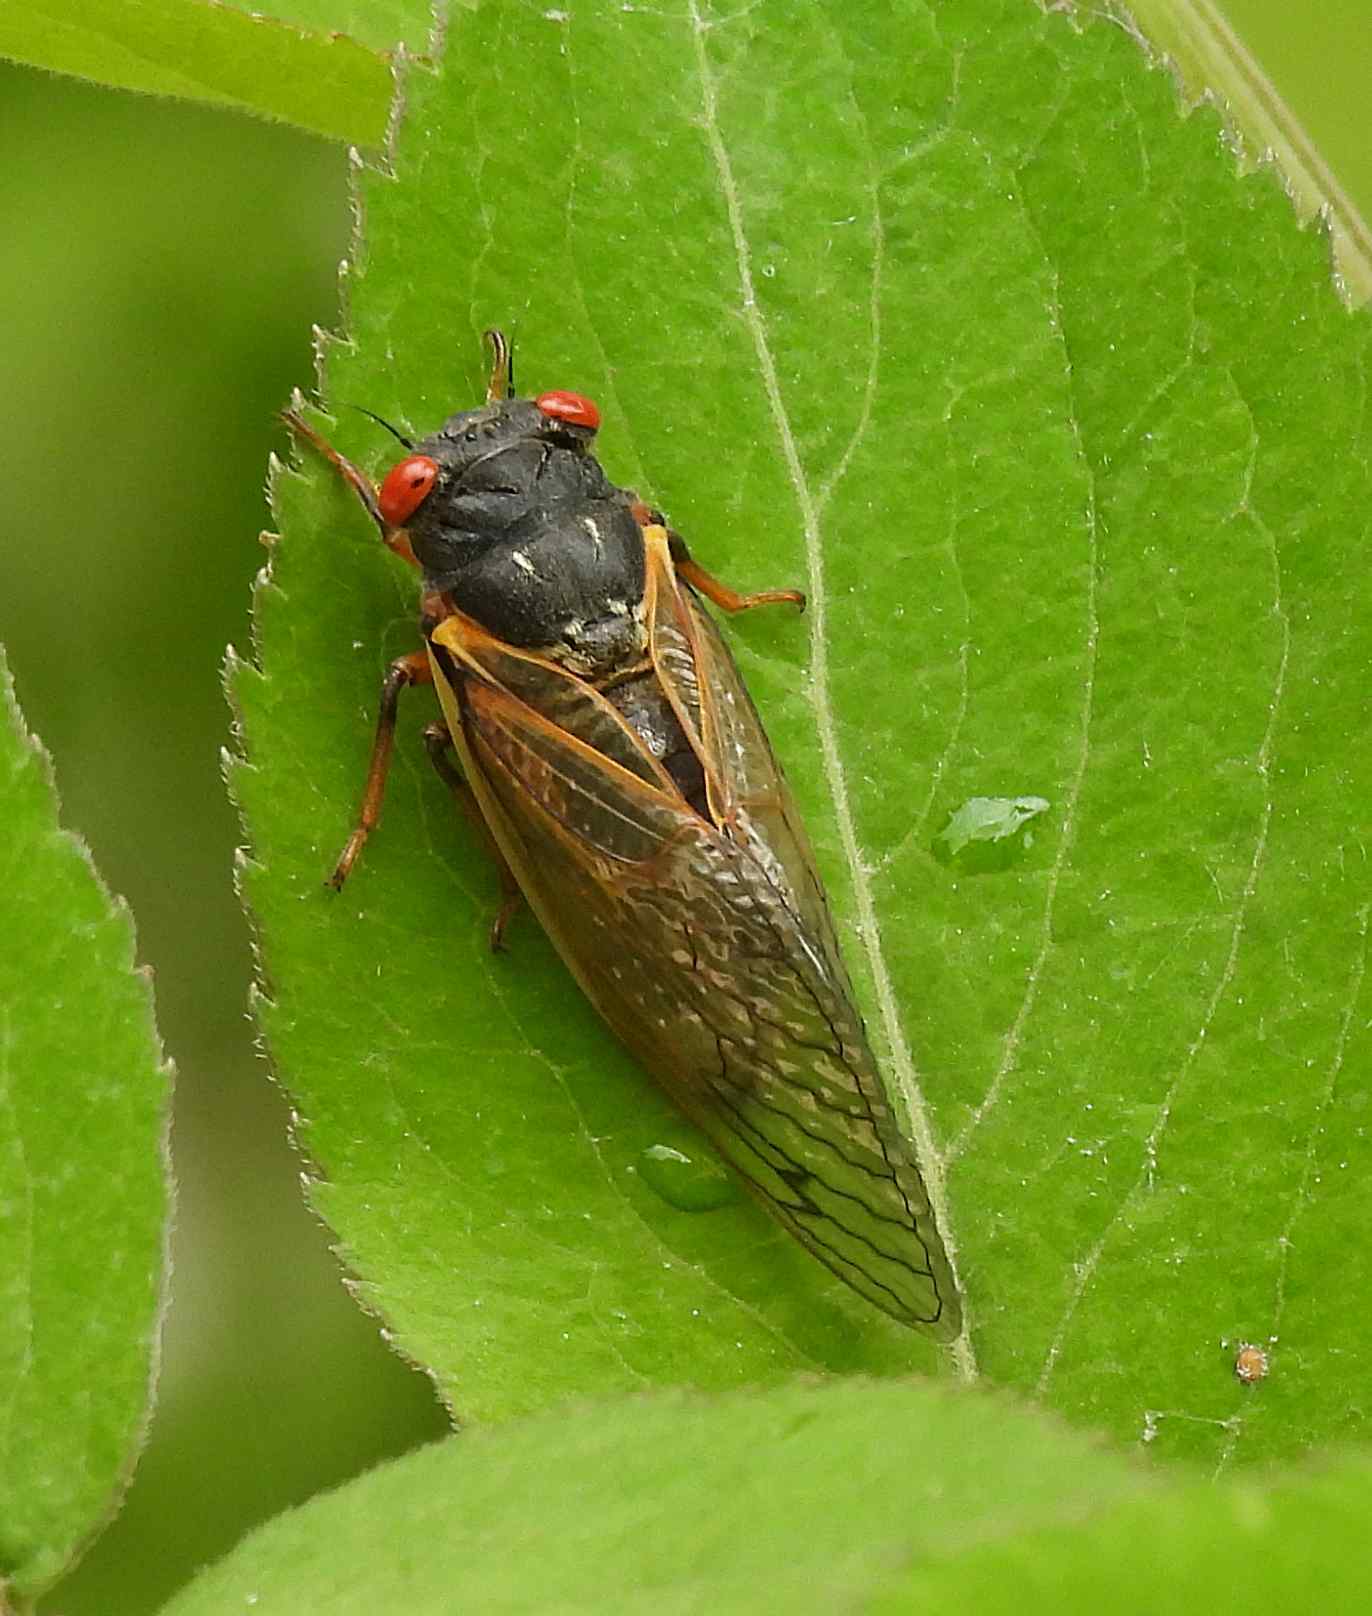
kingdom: Animalia
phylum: Arthropoda
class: Insecta
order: Hemiptera
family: Cicadidae
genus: Magicicada
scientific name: Magicicada
